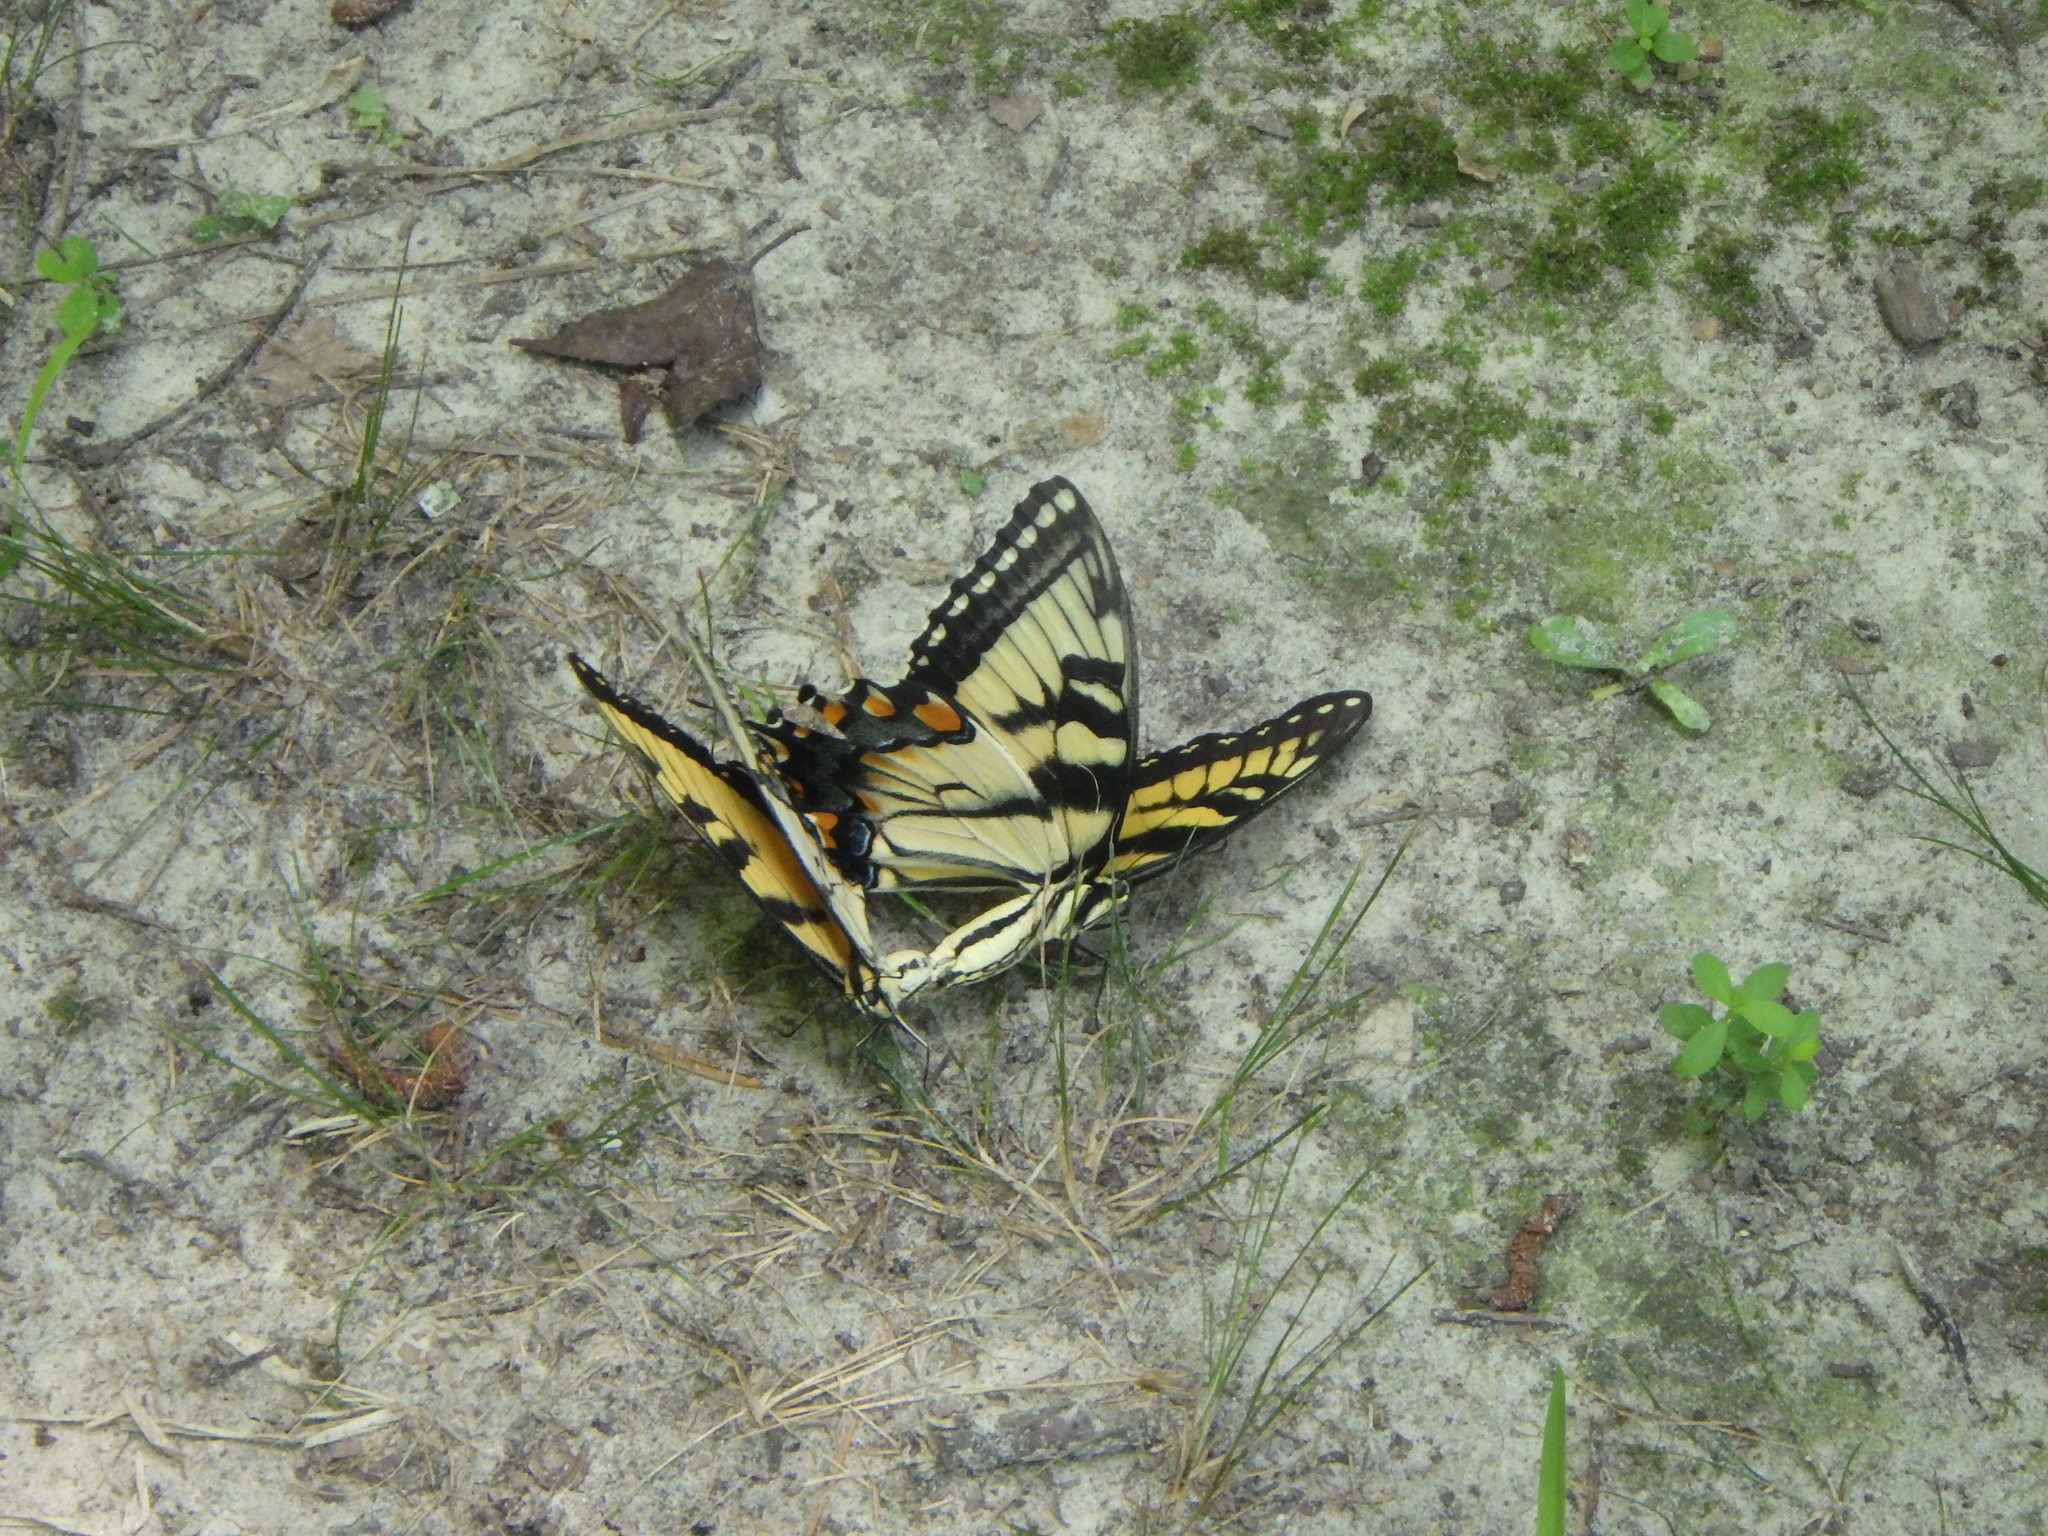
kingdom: Animalia
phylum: Arthropoda
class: Insecta
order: Lepidoptera
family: Papilionidae
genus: Papilio
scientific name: Papilio glaucus
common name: Tiger swallowtail
